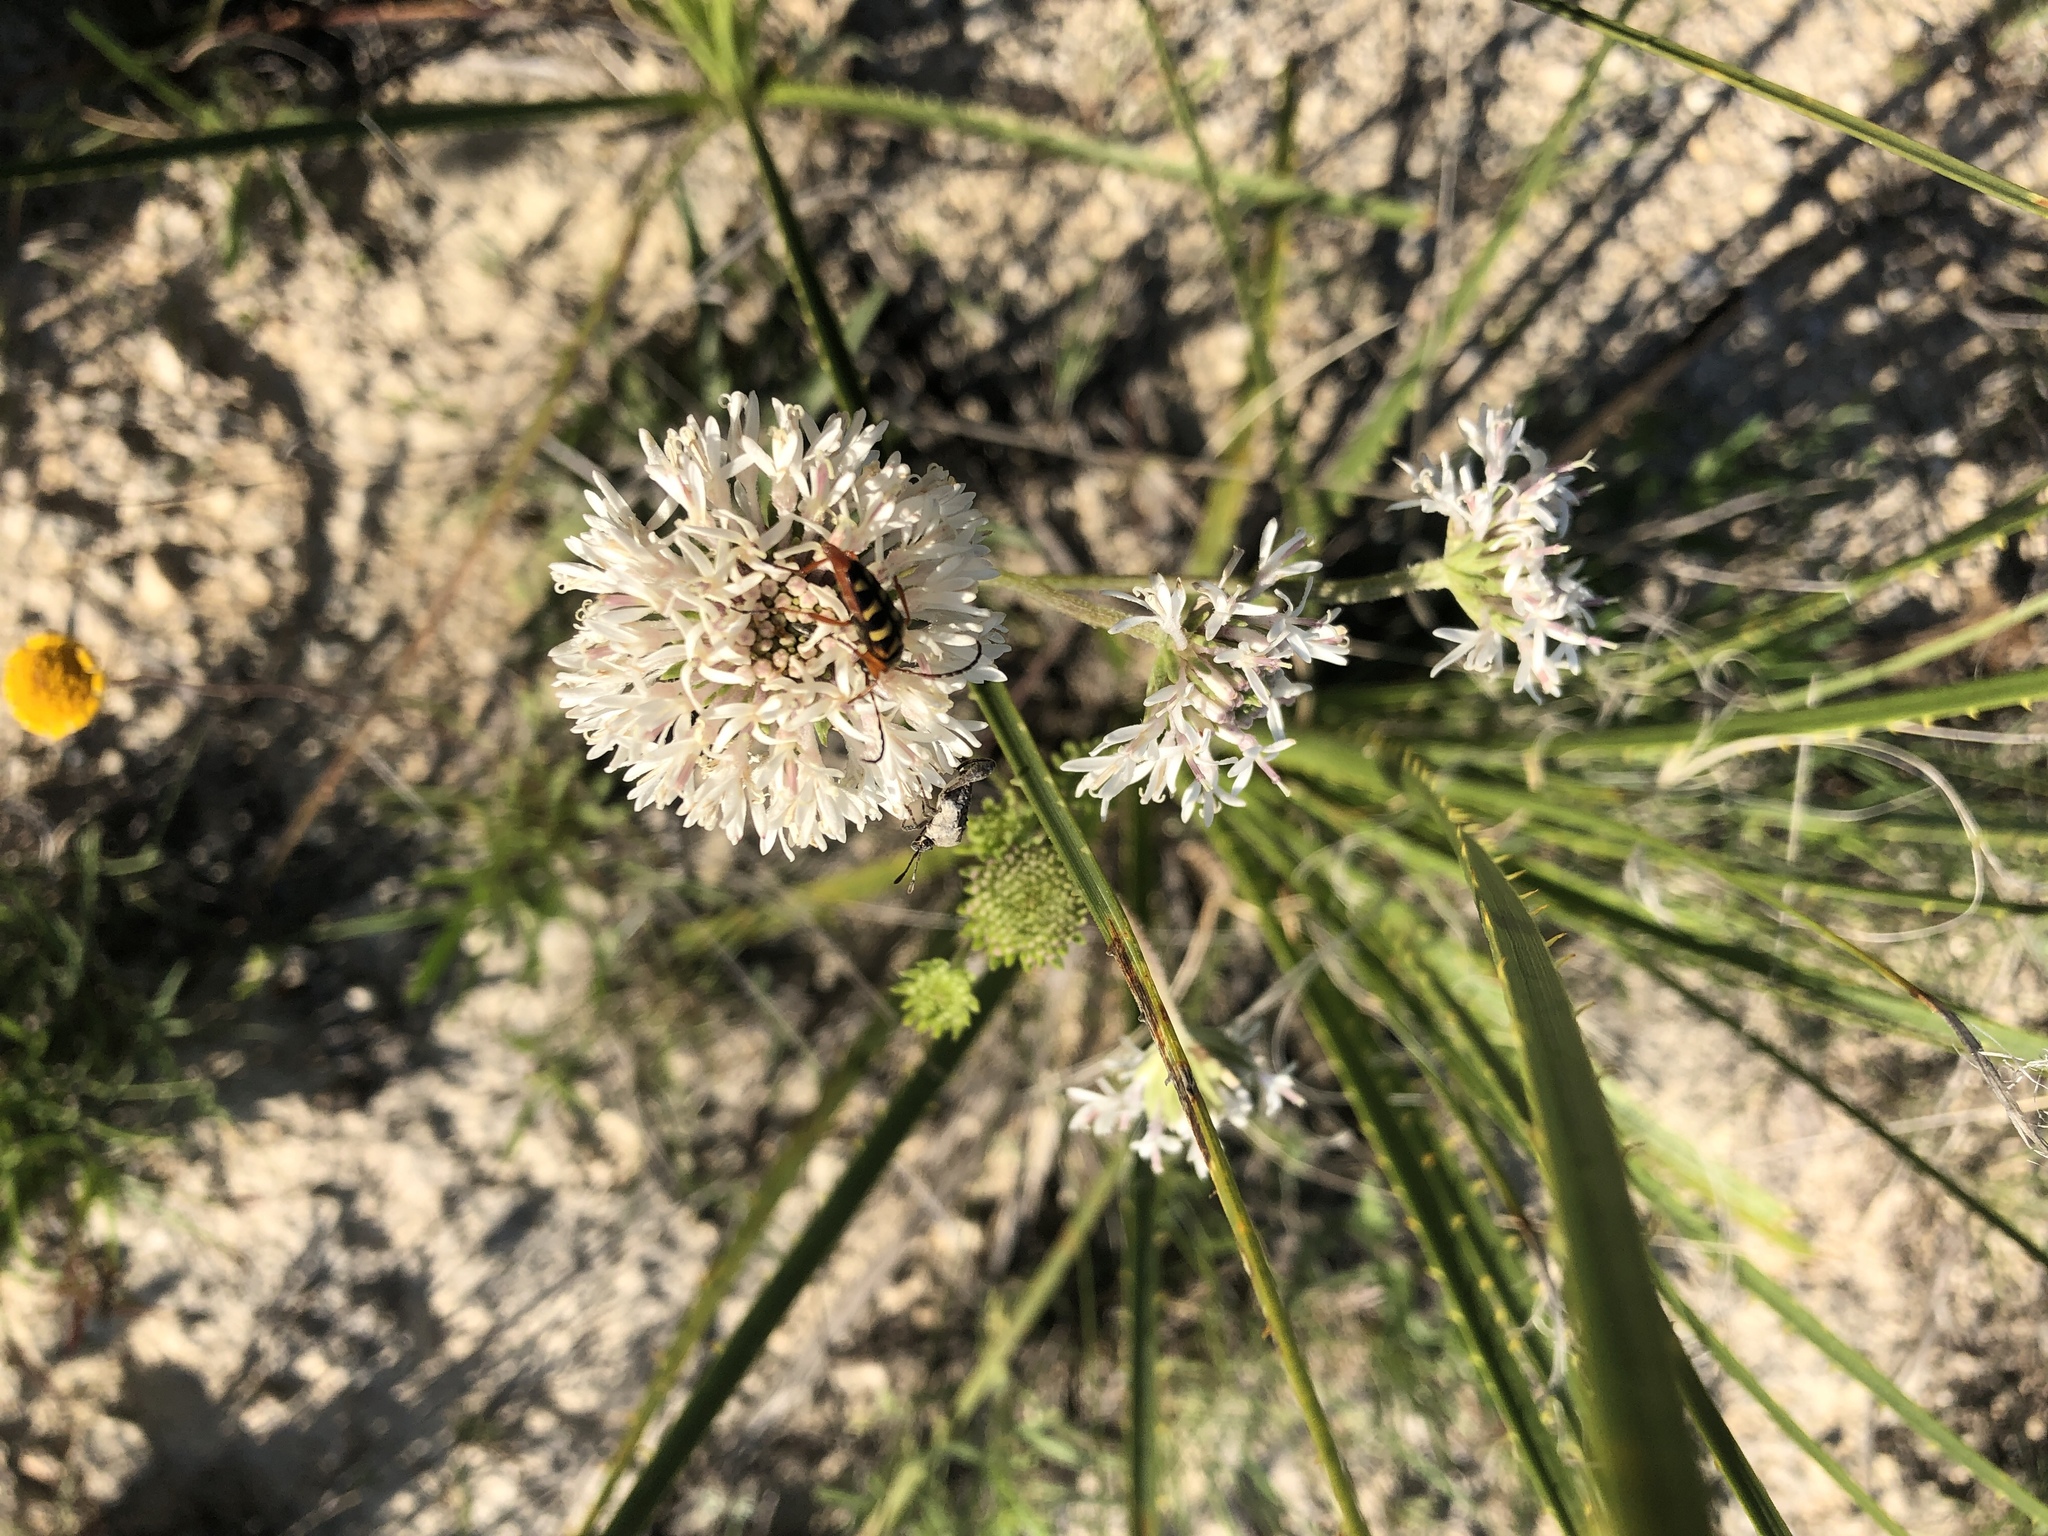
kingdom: Plantae
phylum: Tracheophyta
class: Magnoliopsida
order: Asterales
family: Asteraceae
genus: Marshallia
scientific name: Marshallia caespitosa
